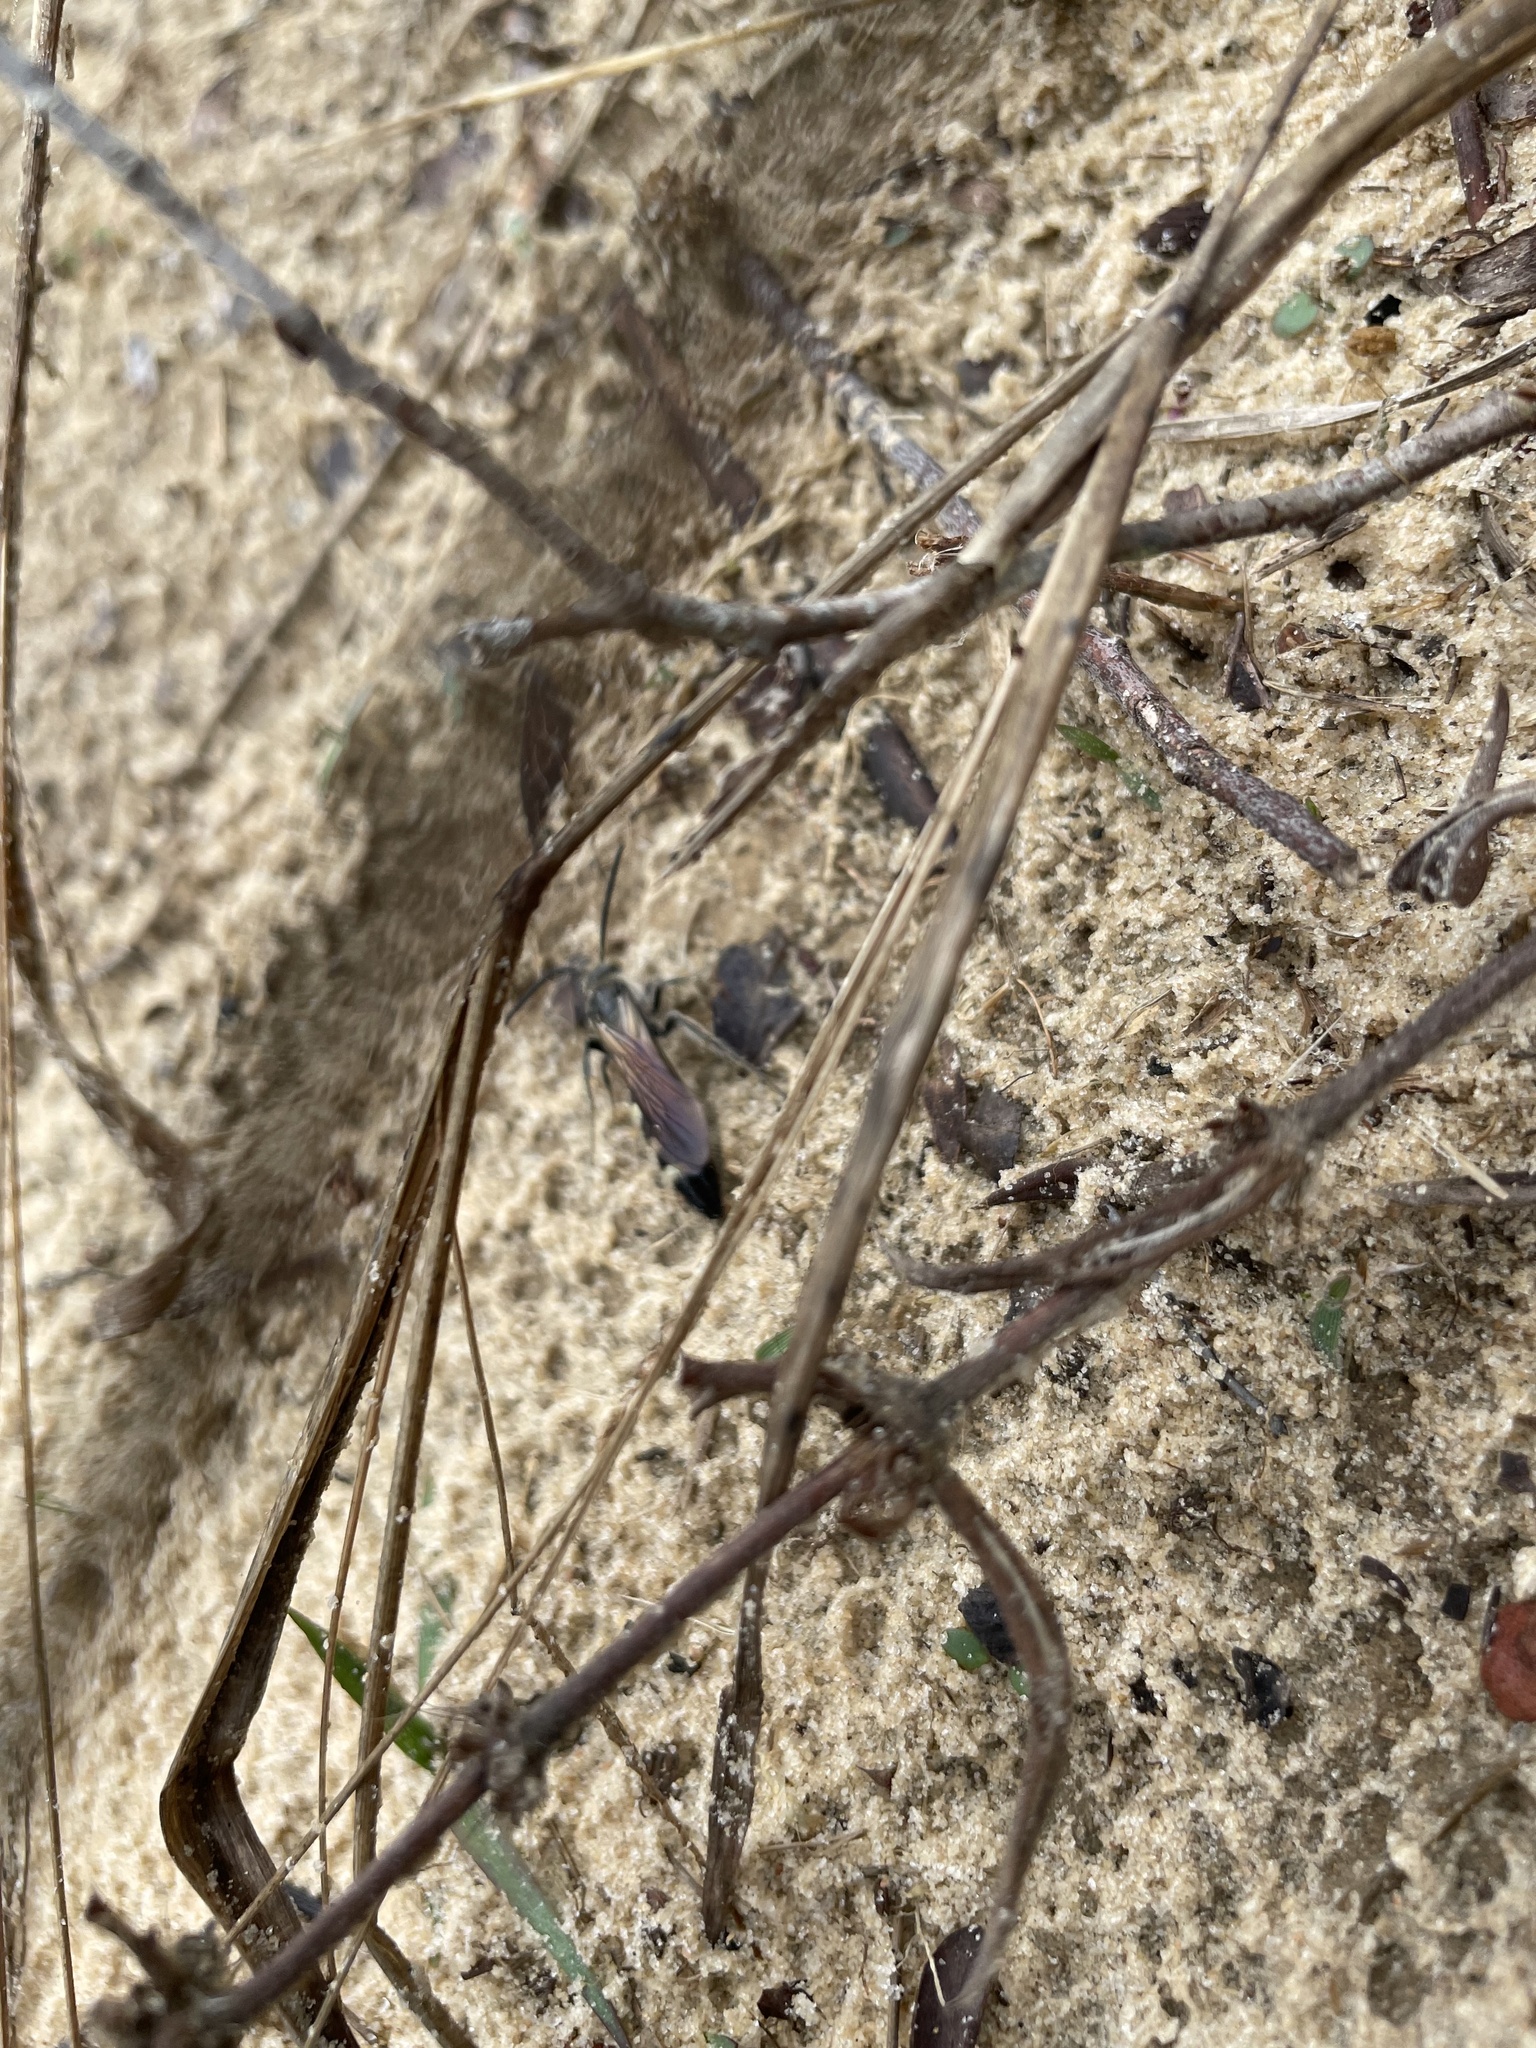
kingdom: Animalia
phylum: Arthropoda
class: Insecta
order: Hymenoptera
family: Scoliidae
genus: Dielis
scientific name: Dielis
